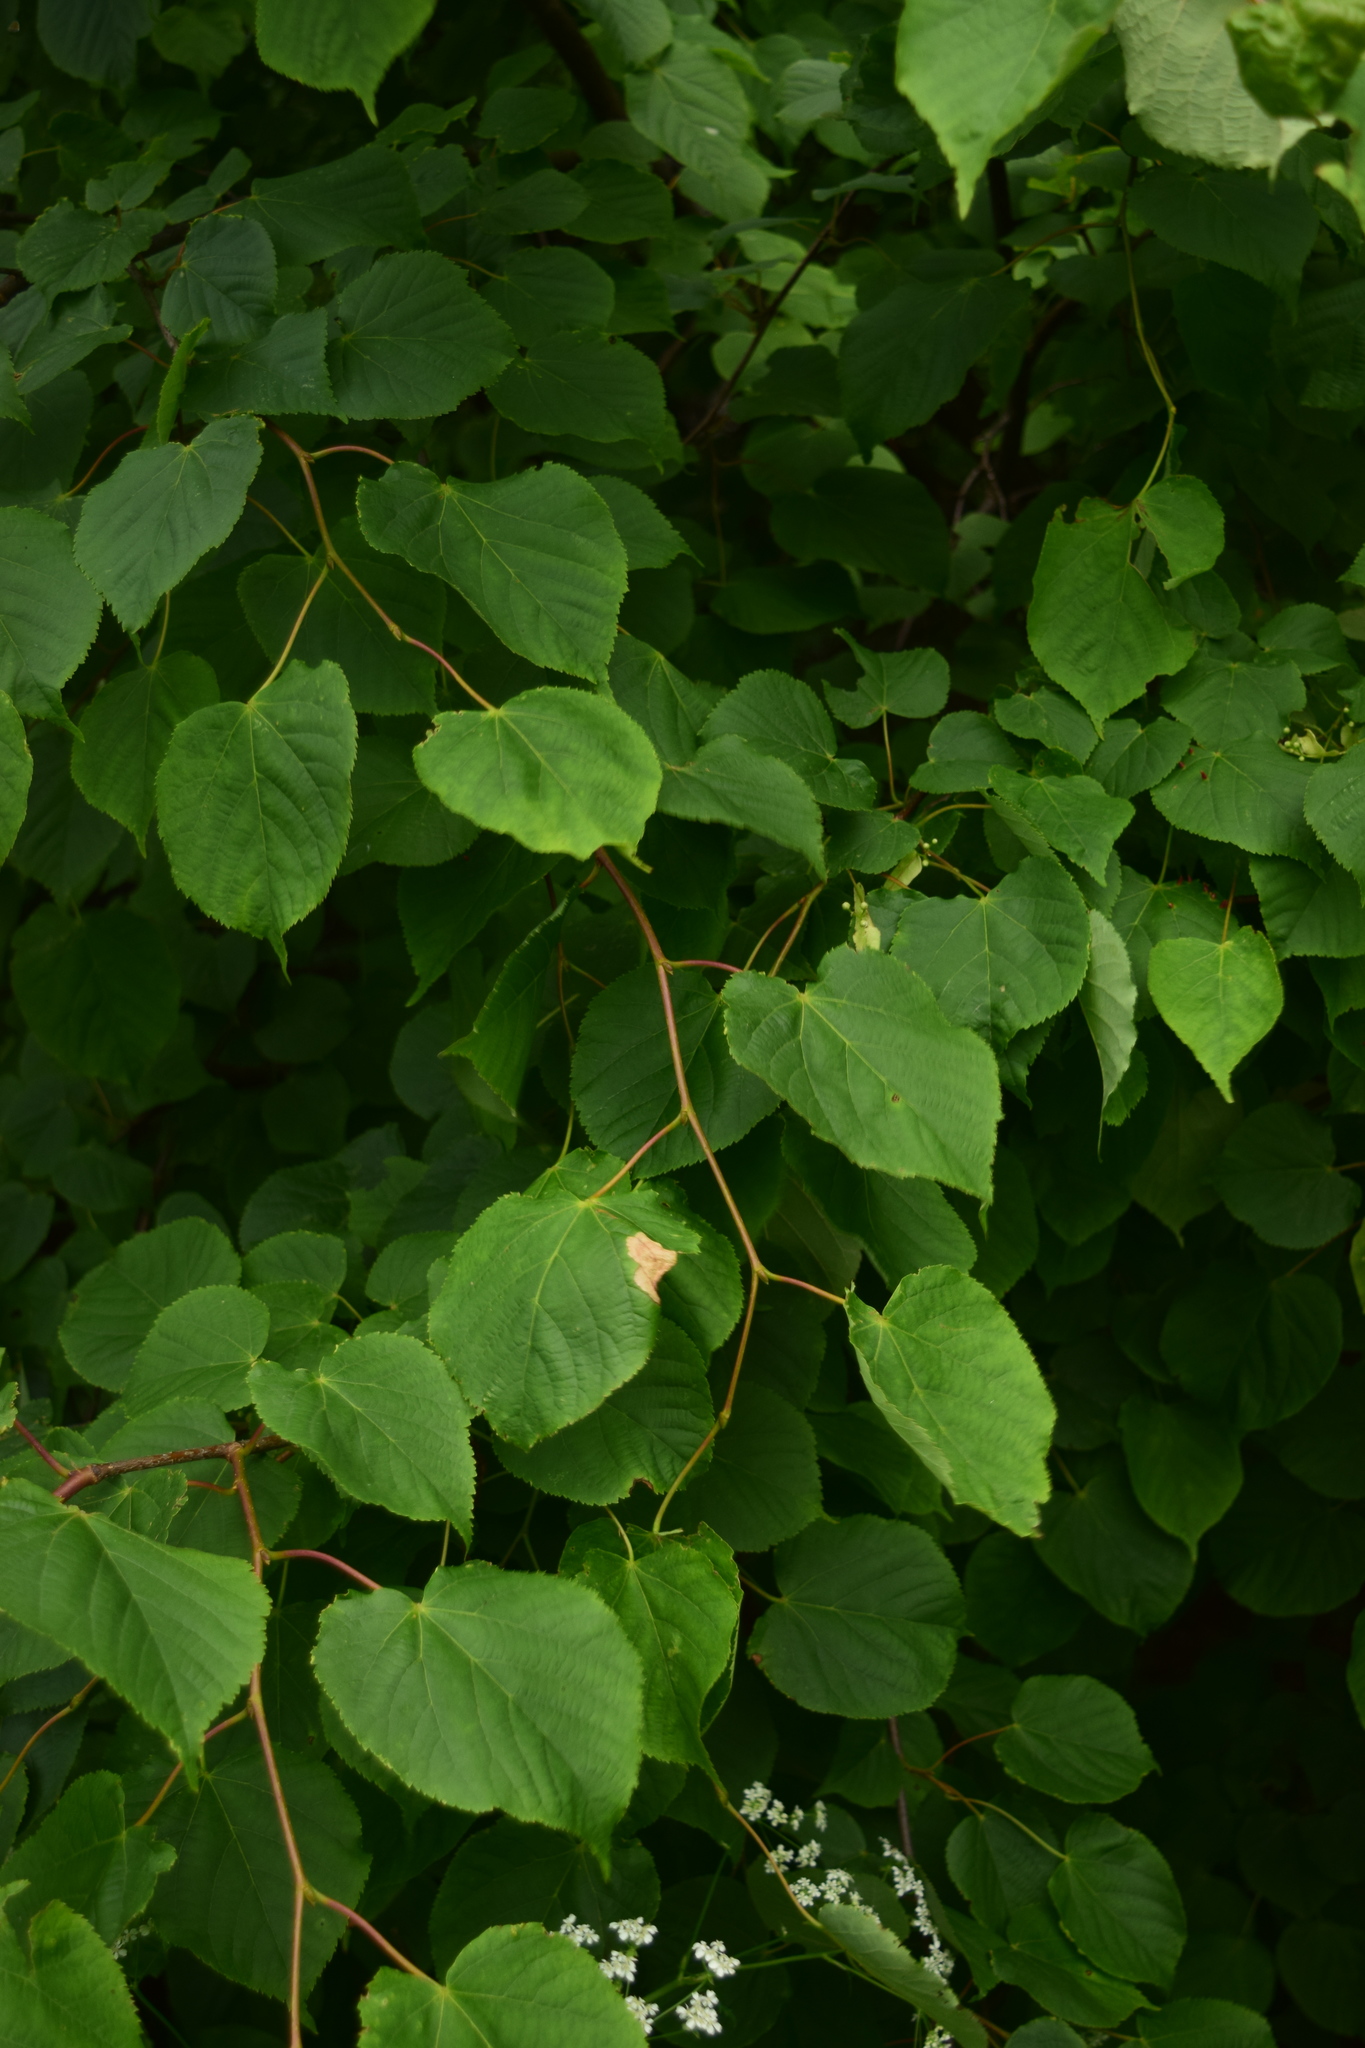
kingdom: Plantae
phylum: Tracheophyta
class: Magnoliopsida
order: Malvales
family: Malvaceae
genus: Tilia
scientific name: Tilia cordata
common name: Small-leaved lime
